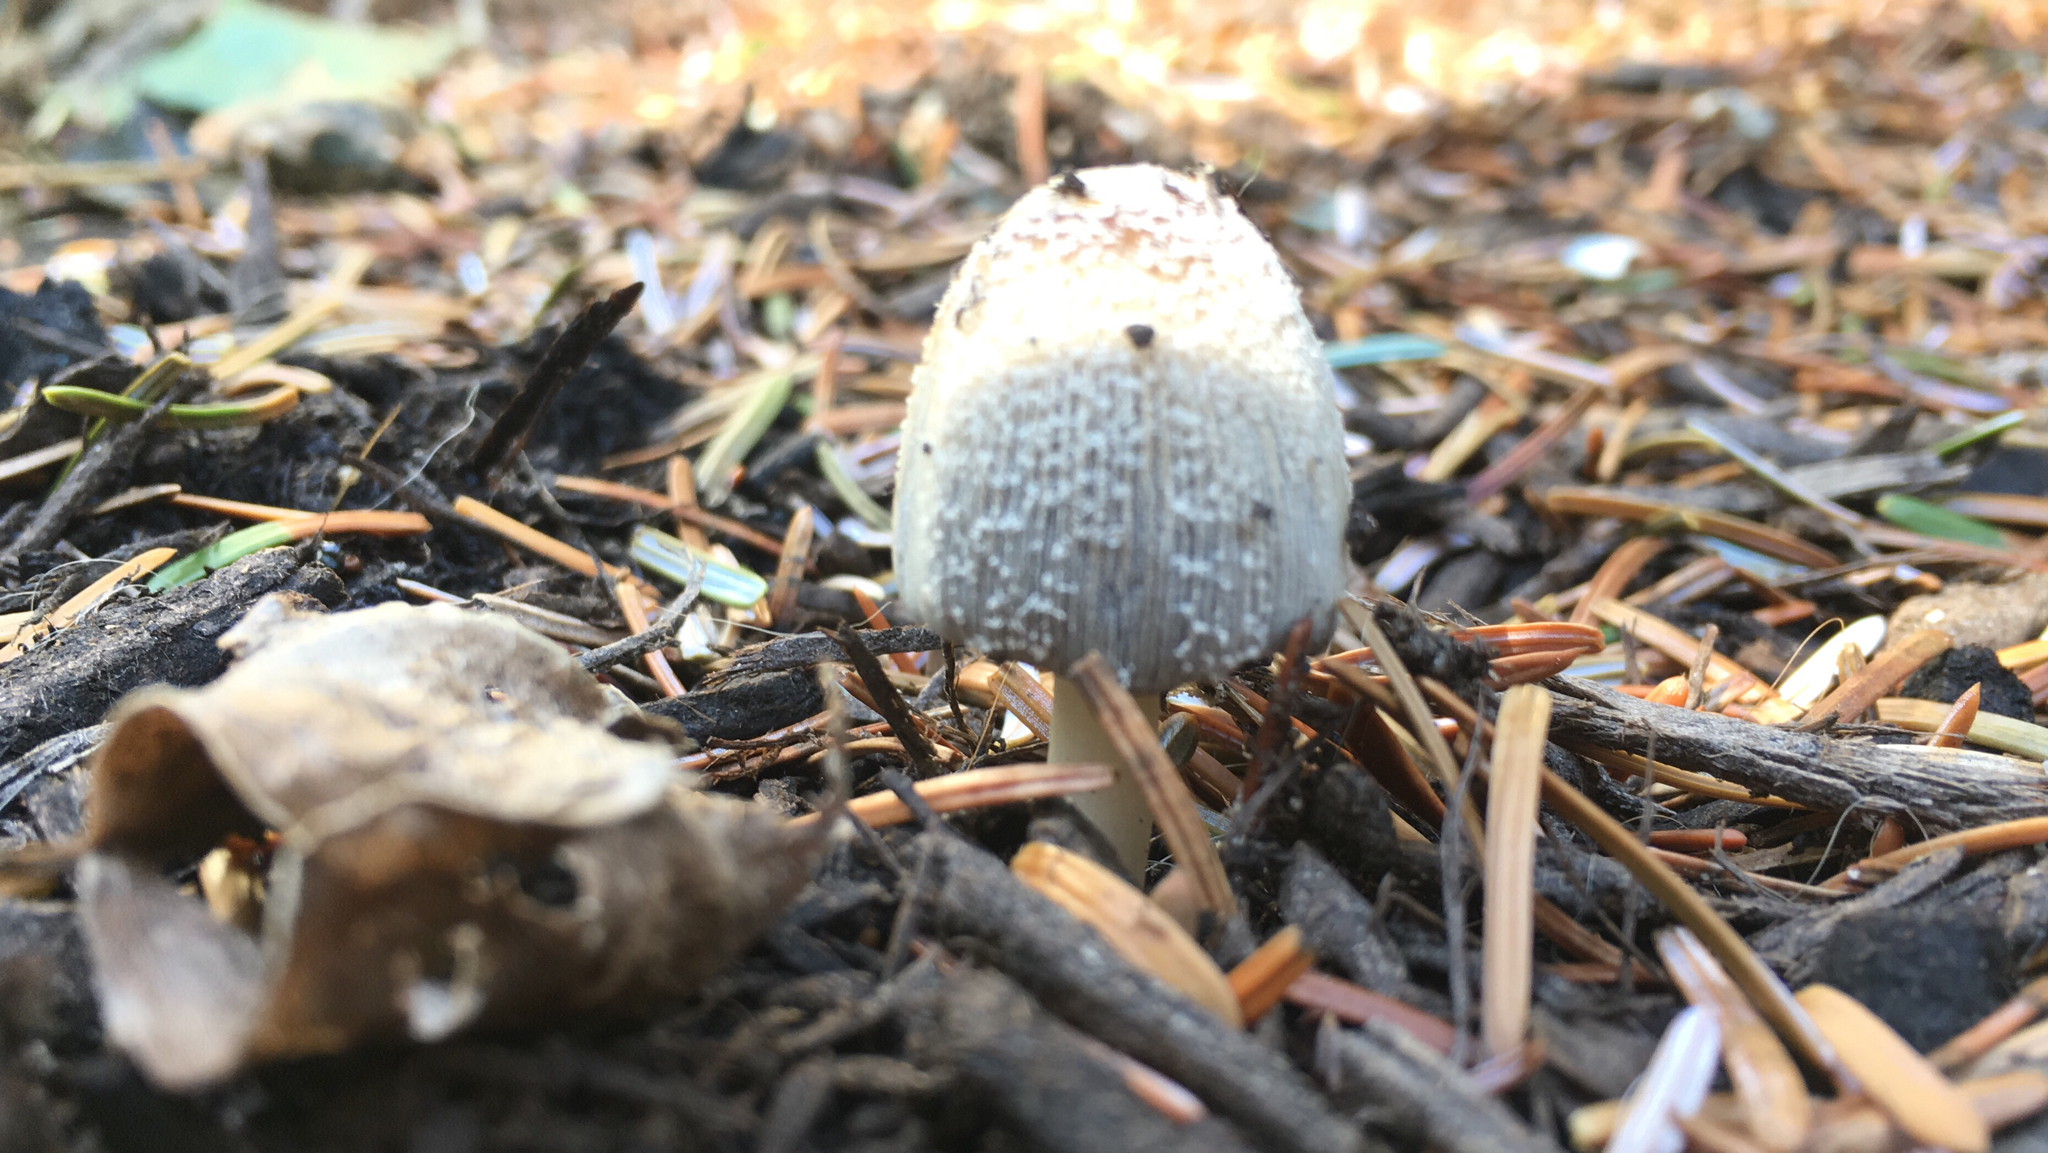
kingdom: Fungi
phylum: Basidiomycota
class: Agaricomycetes
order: Agaricales
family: Psathyrellaceae
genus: Coprinellus
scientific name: Coprinellus flocculosus
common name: Flocculose inkcap
